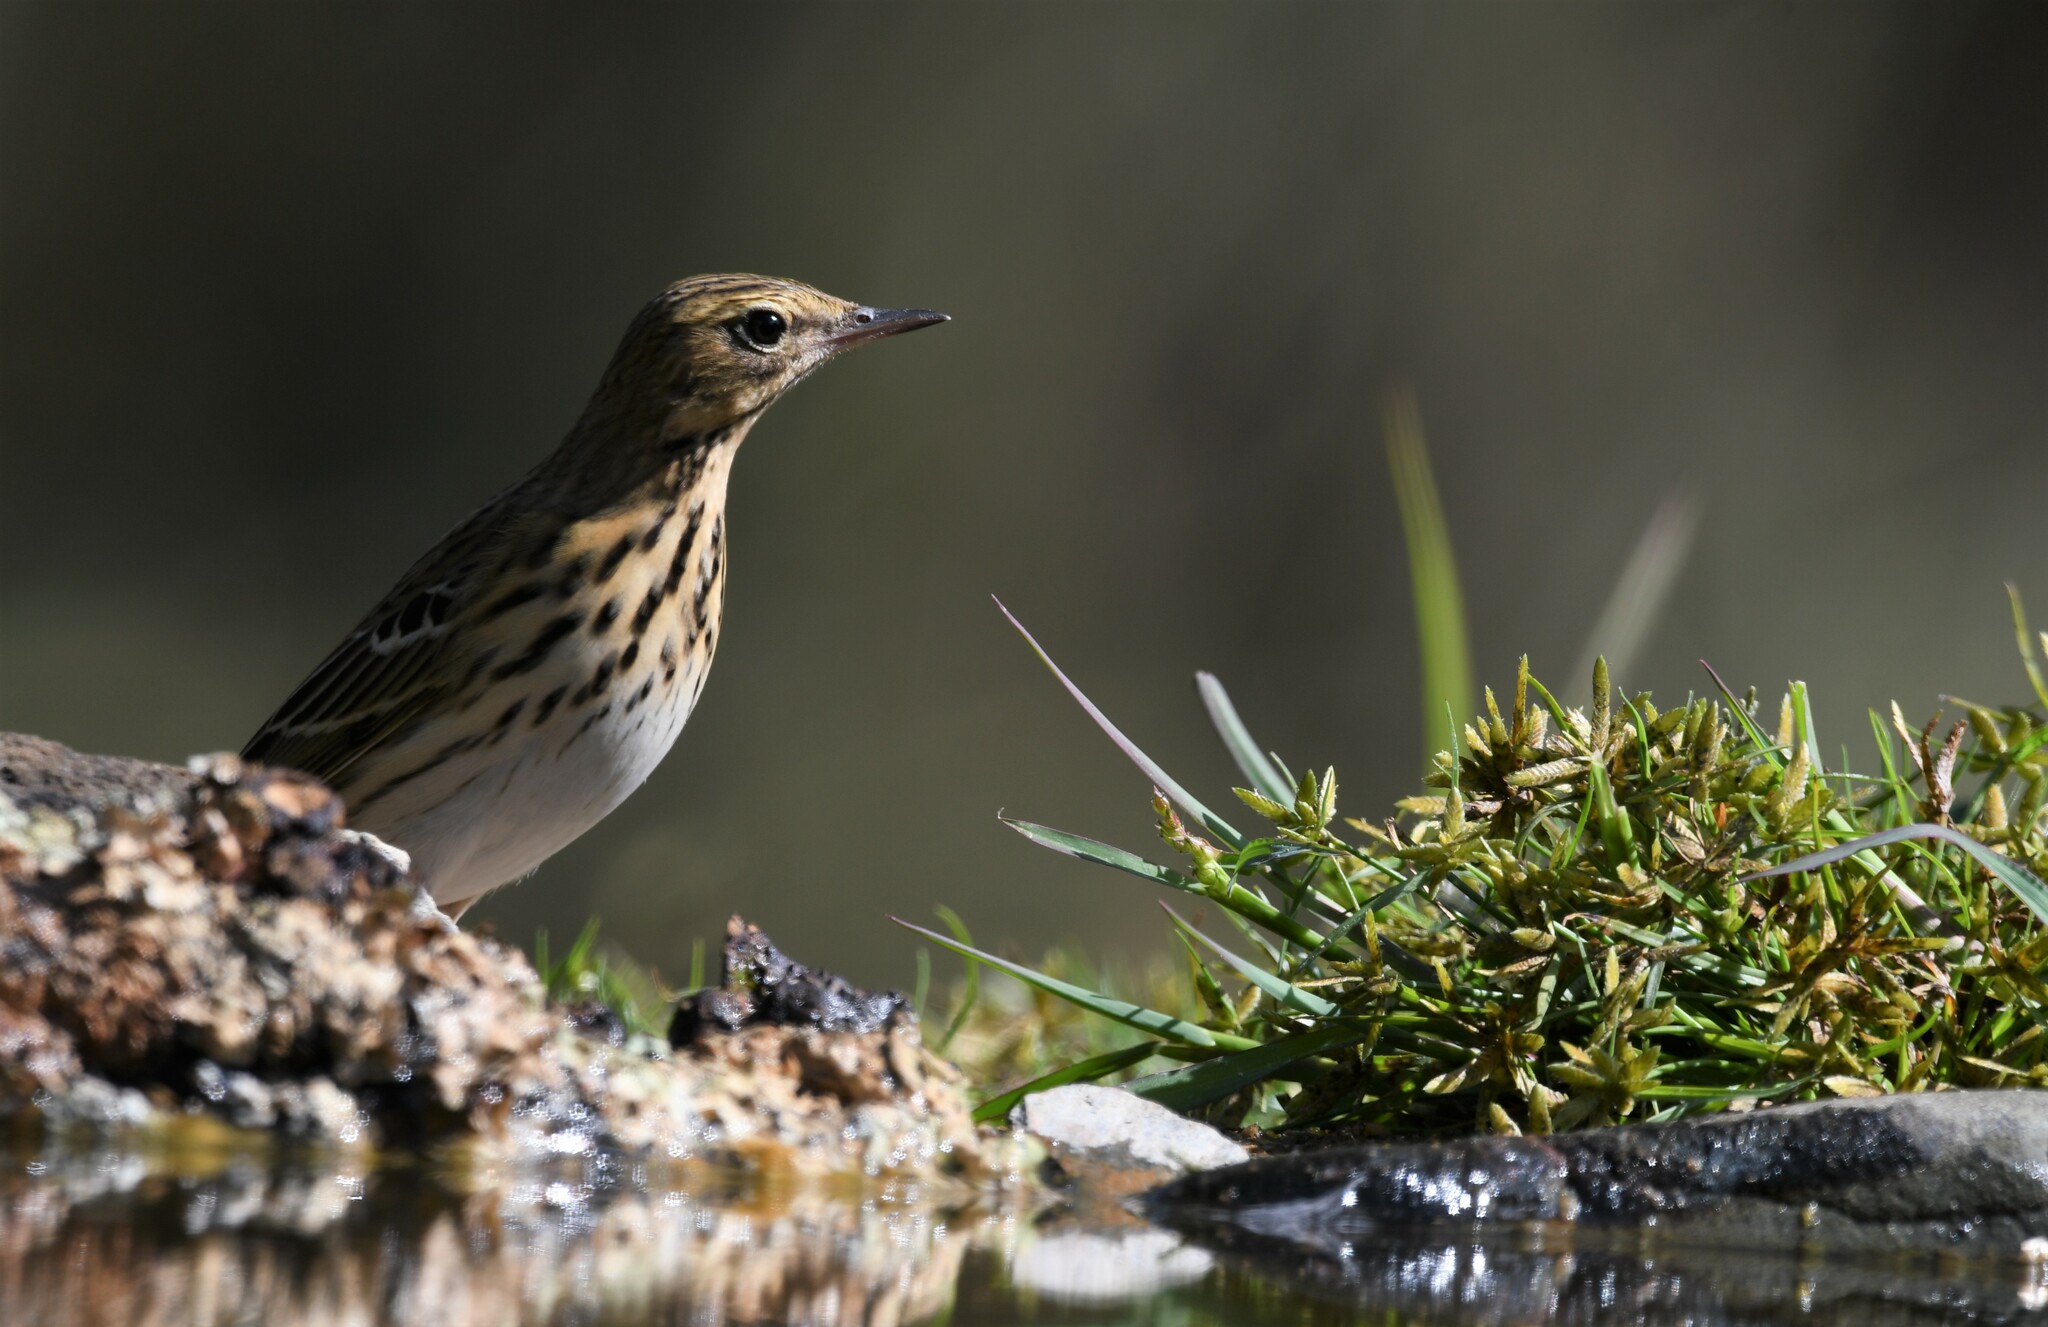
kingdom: Animalia
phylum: Chordata
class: Aves
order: Passeriformes
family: Motacillidae
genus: Anthus
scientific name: Anthus trivialis
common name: Tree pipit
